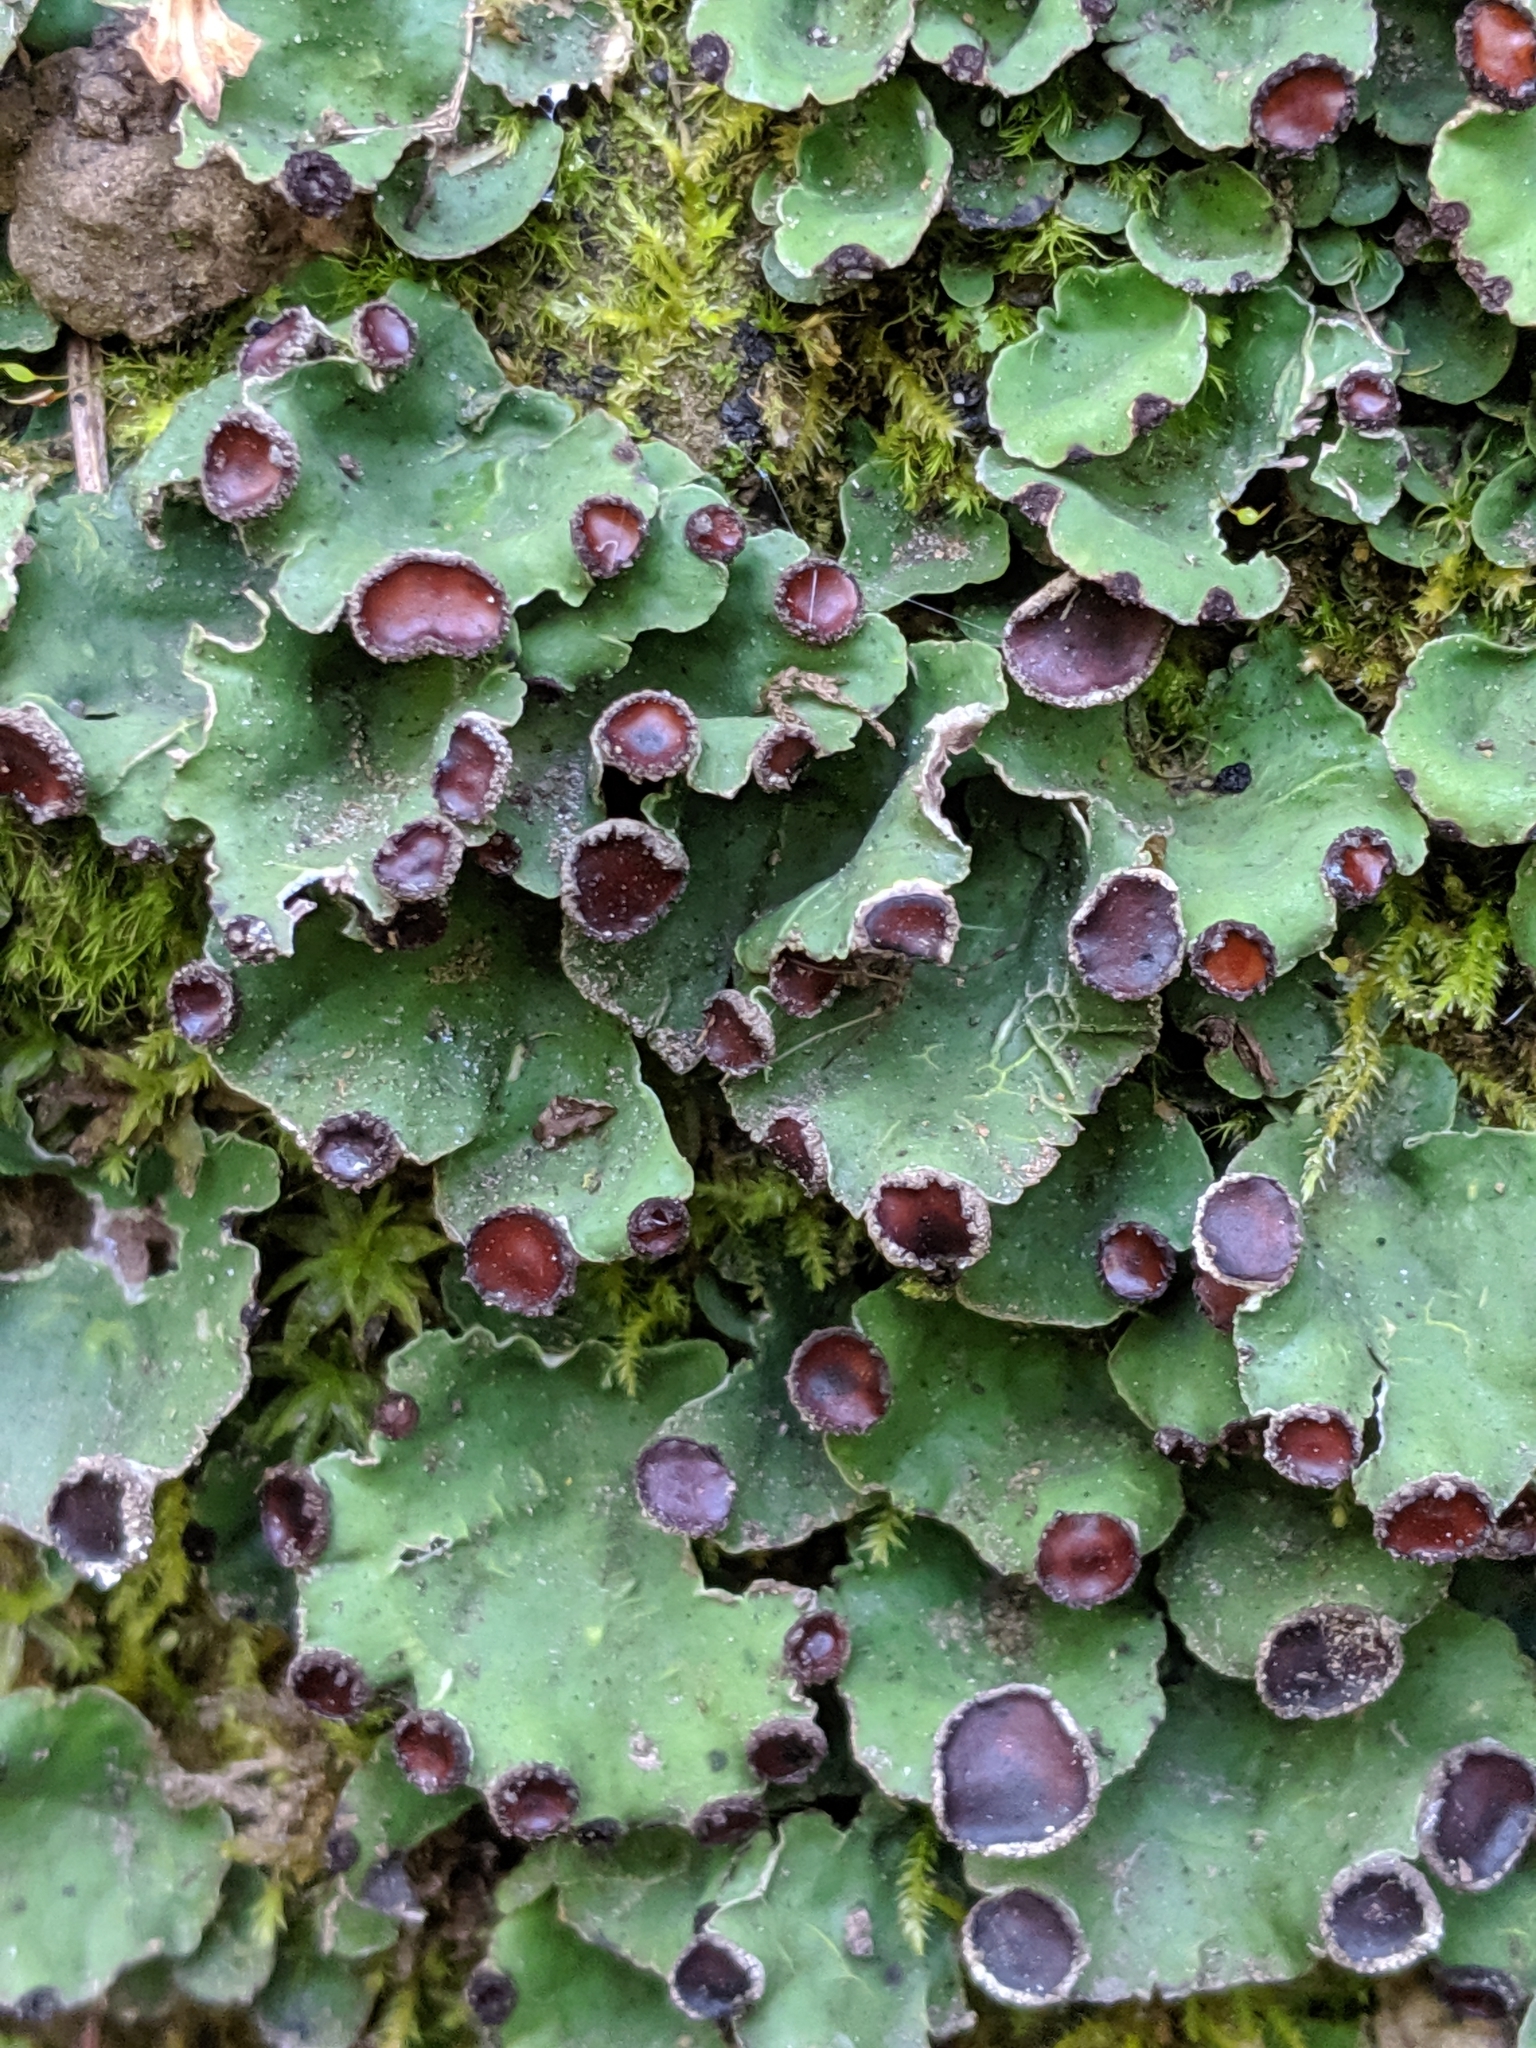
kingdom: Fungi
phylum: Ascomycota
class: Lecanoromycetes
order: Peltigerales
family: Peltigeraceae
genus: Peltigera
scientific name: Peltigera venosa
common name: Pixie gowns lichen
